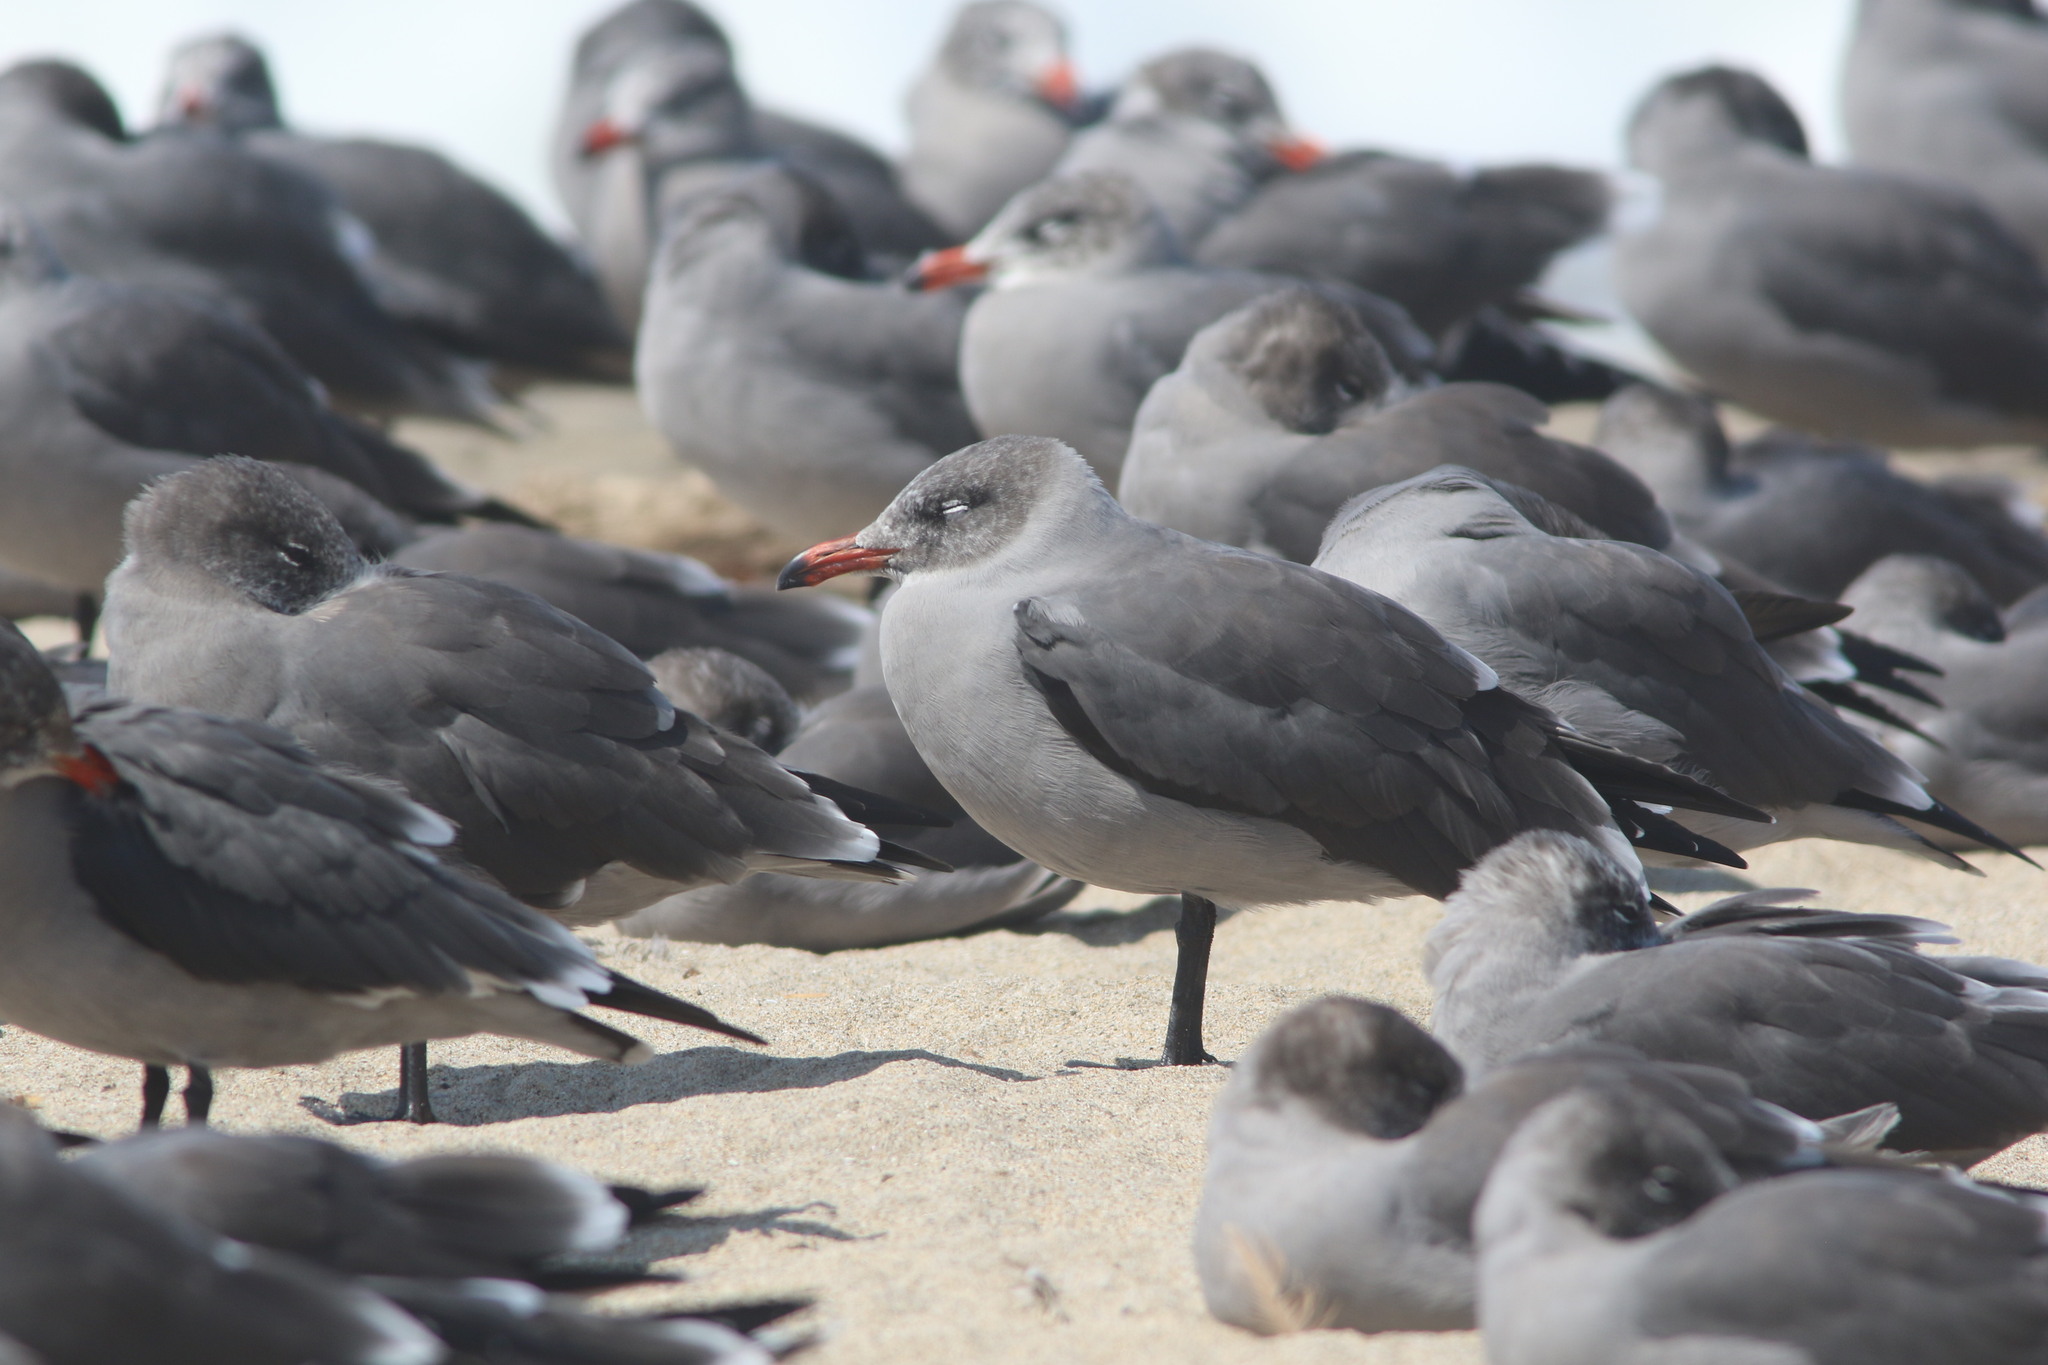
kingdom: Animalia
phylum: Chordata
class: Aves
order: Charadriiformes
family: Laridae
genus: Larus
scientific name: Larus heermanni
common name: Heermann's gull
